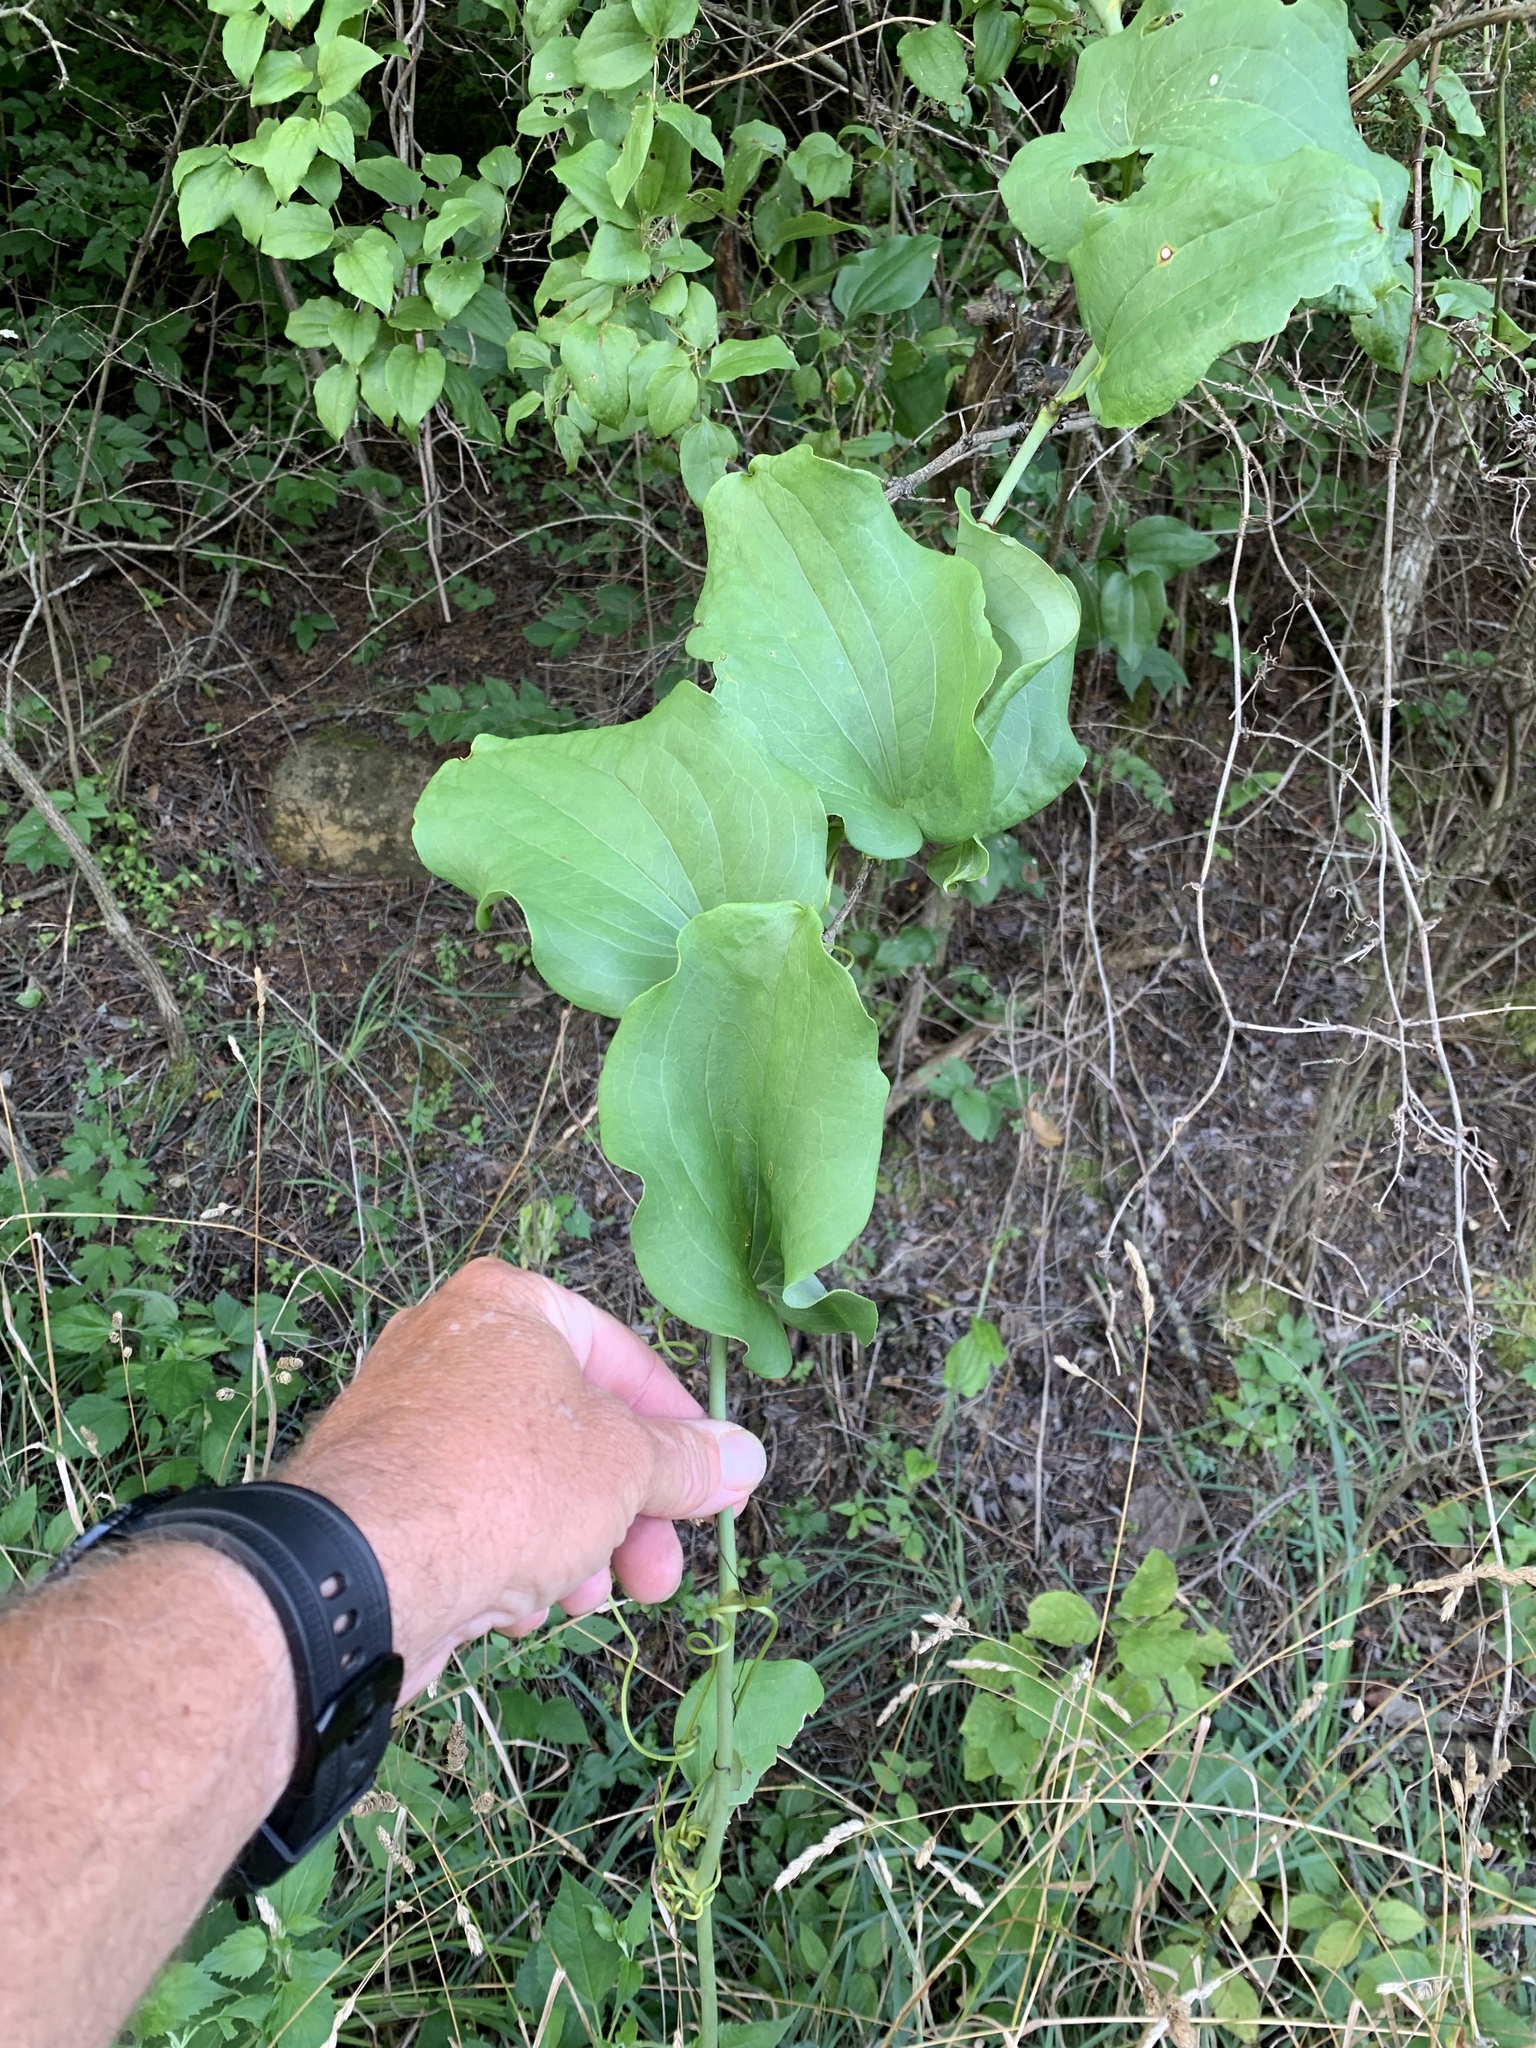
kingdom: Plantae
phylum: Tracheophyta
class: Liliopsida
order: Liliales
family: Smilacaceae
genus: Smilax
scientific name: Smilax tamnoides
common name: Hellfetter
